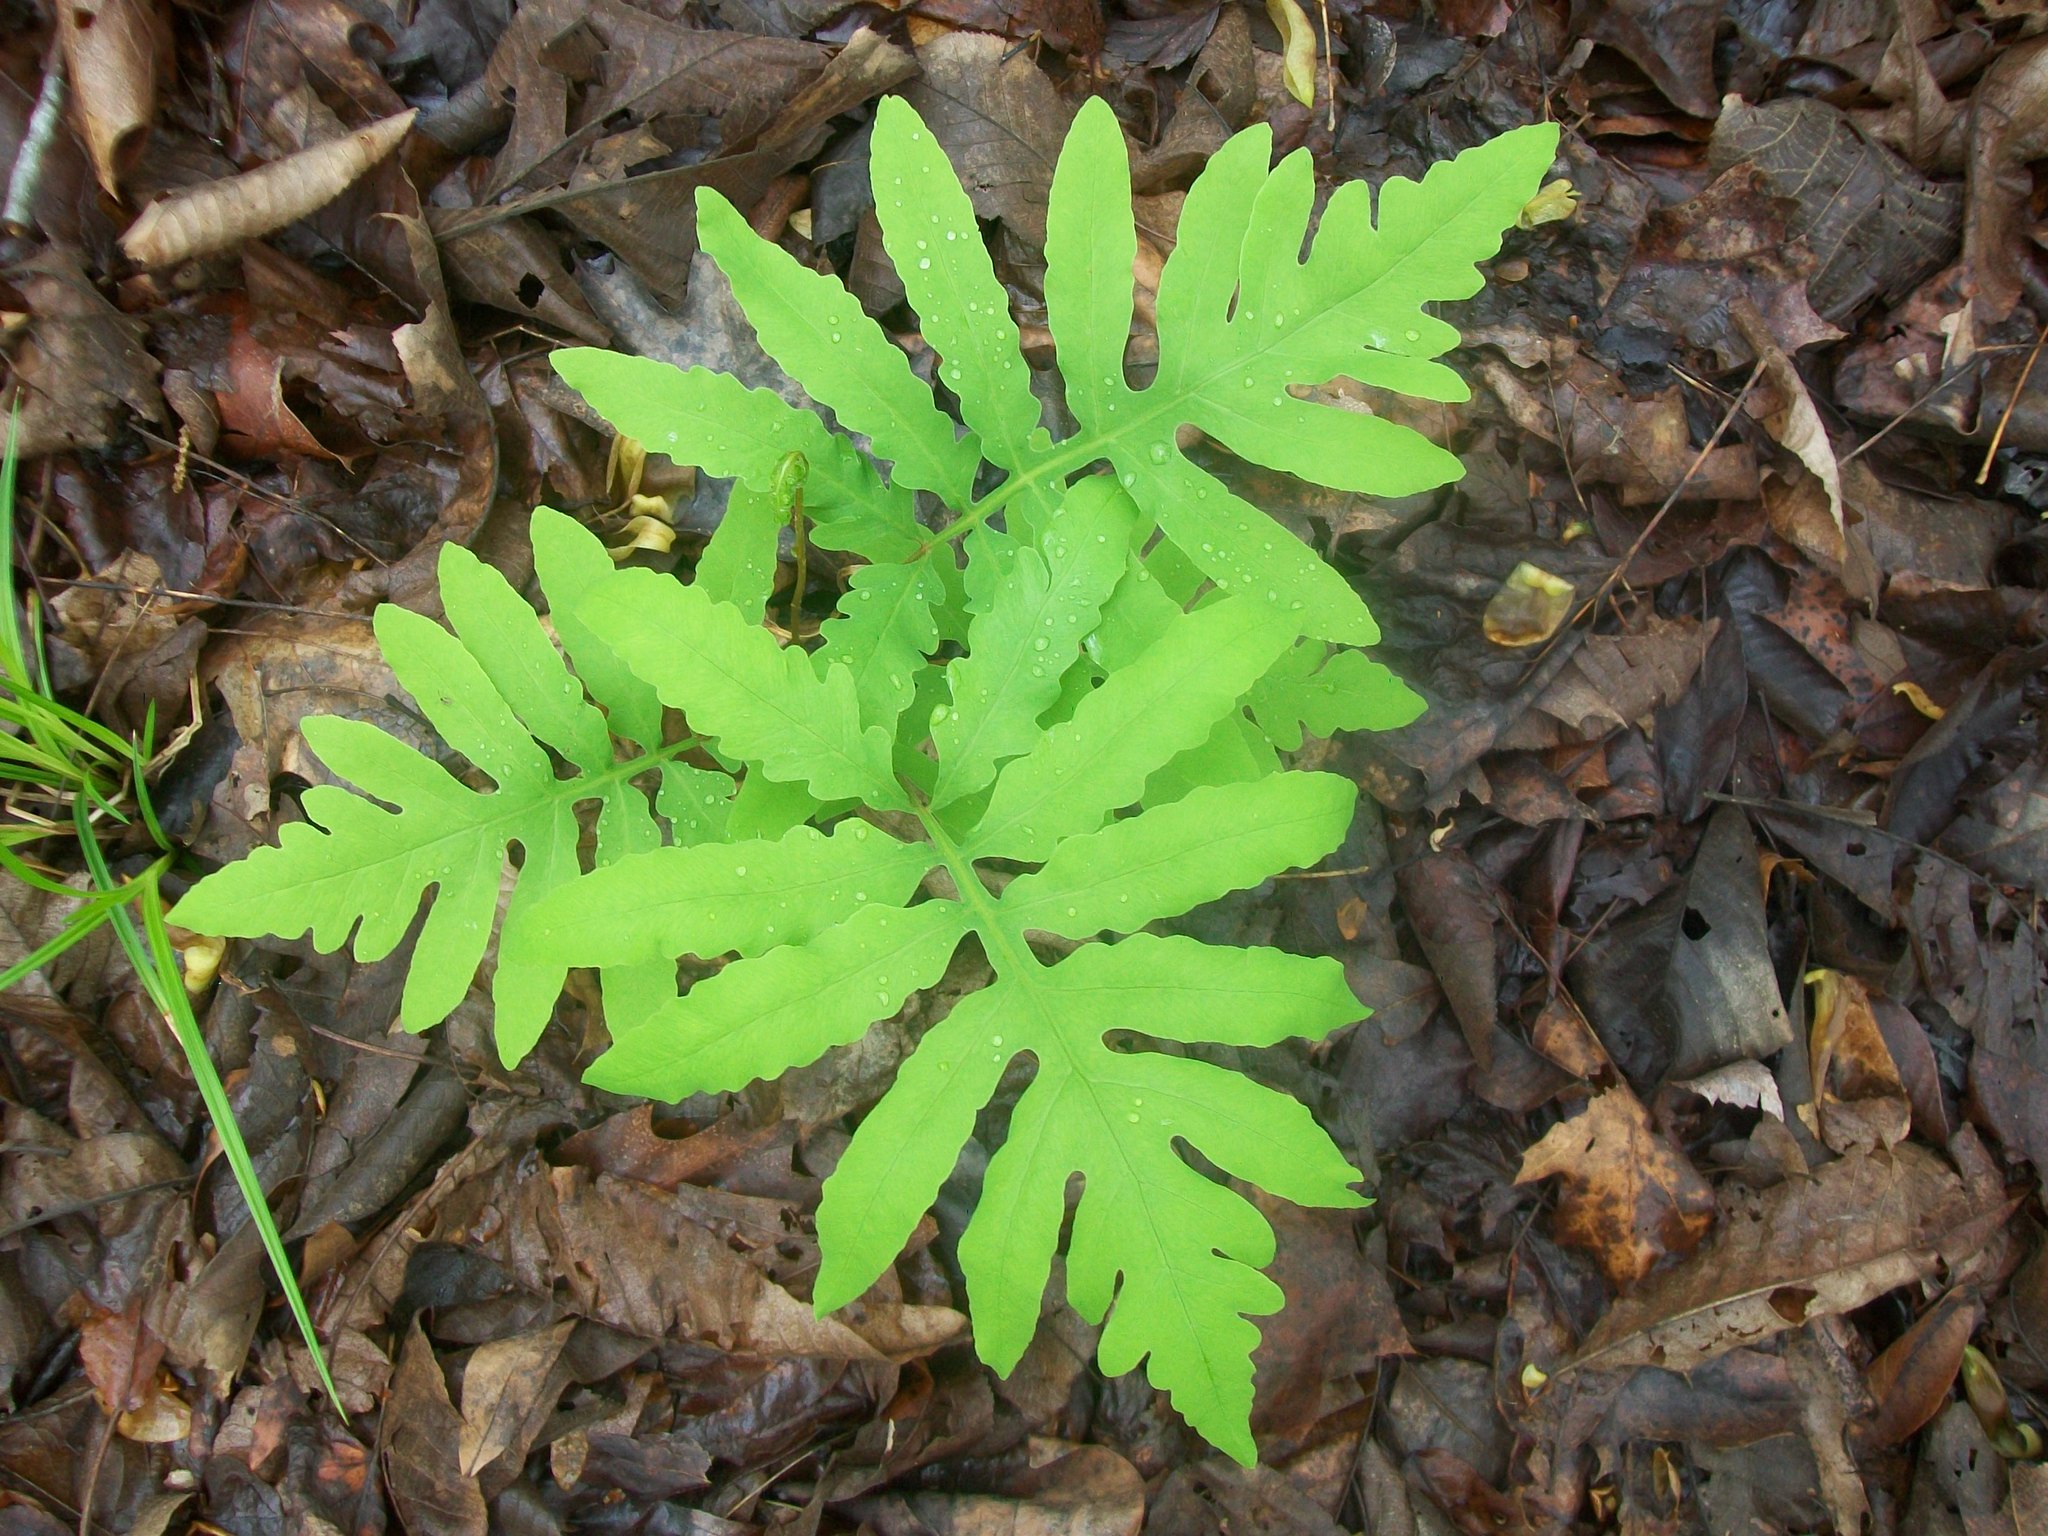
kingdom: Plantae
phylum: Tracheophyta
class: Polypodiopsida
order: Polypodiales
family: Onocleaceae
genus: Onoclea
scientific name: Onoclea sensibilis
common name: Sensitive fern
